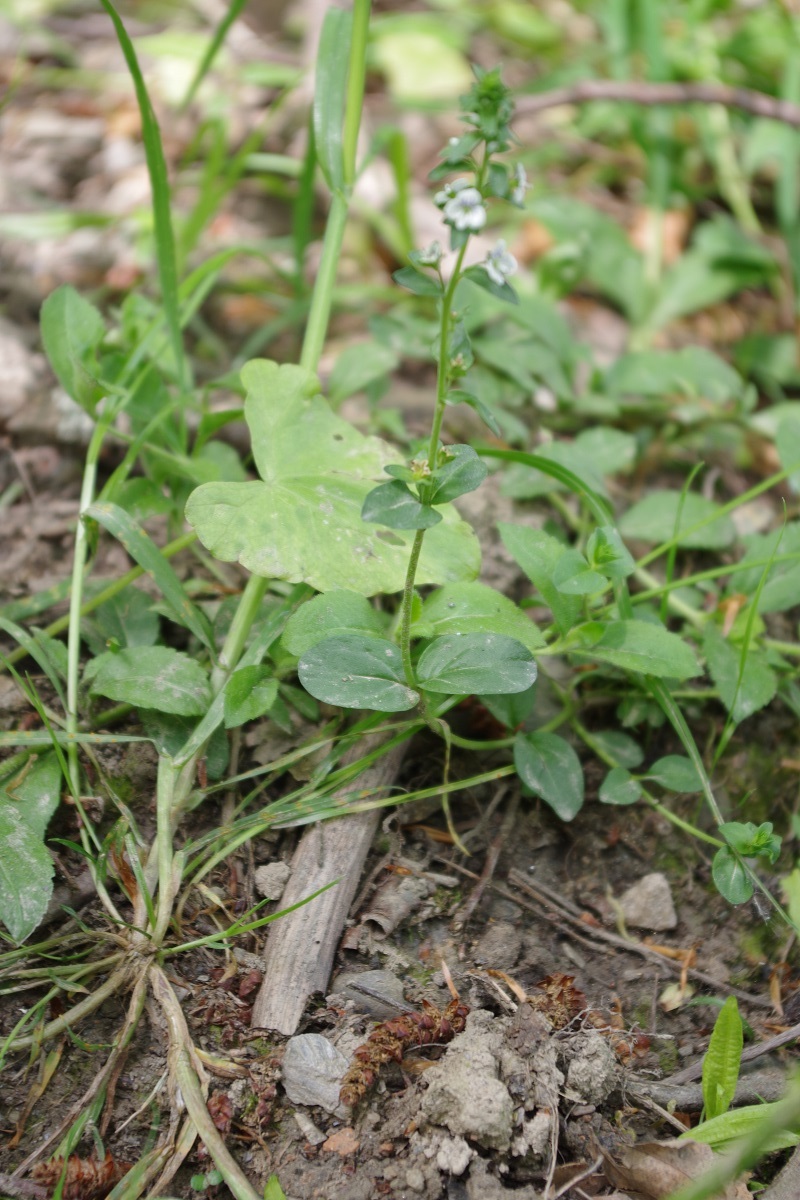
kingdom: Plantae
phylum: Tracheophyta
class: Magnoliopsida
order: Lamiales
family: Plantaginaceae
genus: Veronica
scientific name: Veronica serpyllifolia
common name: Thyme-leaved speedwell
